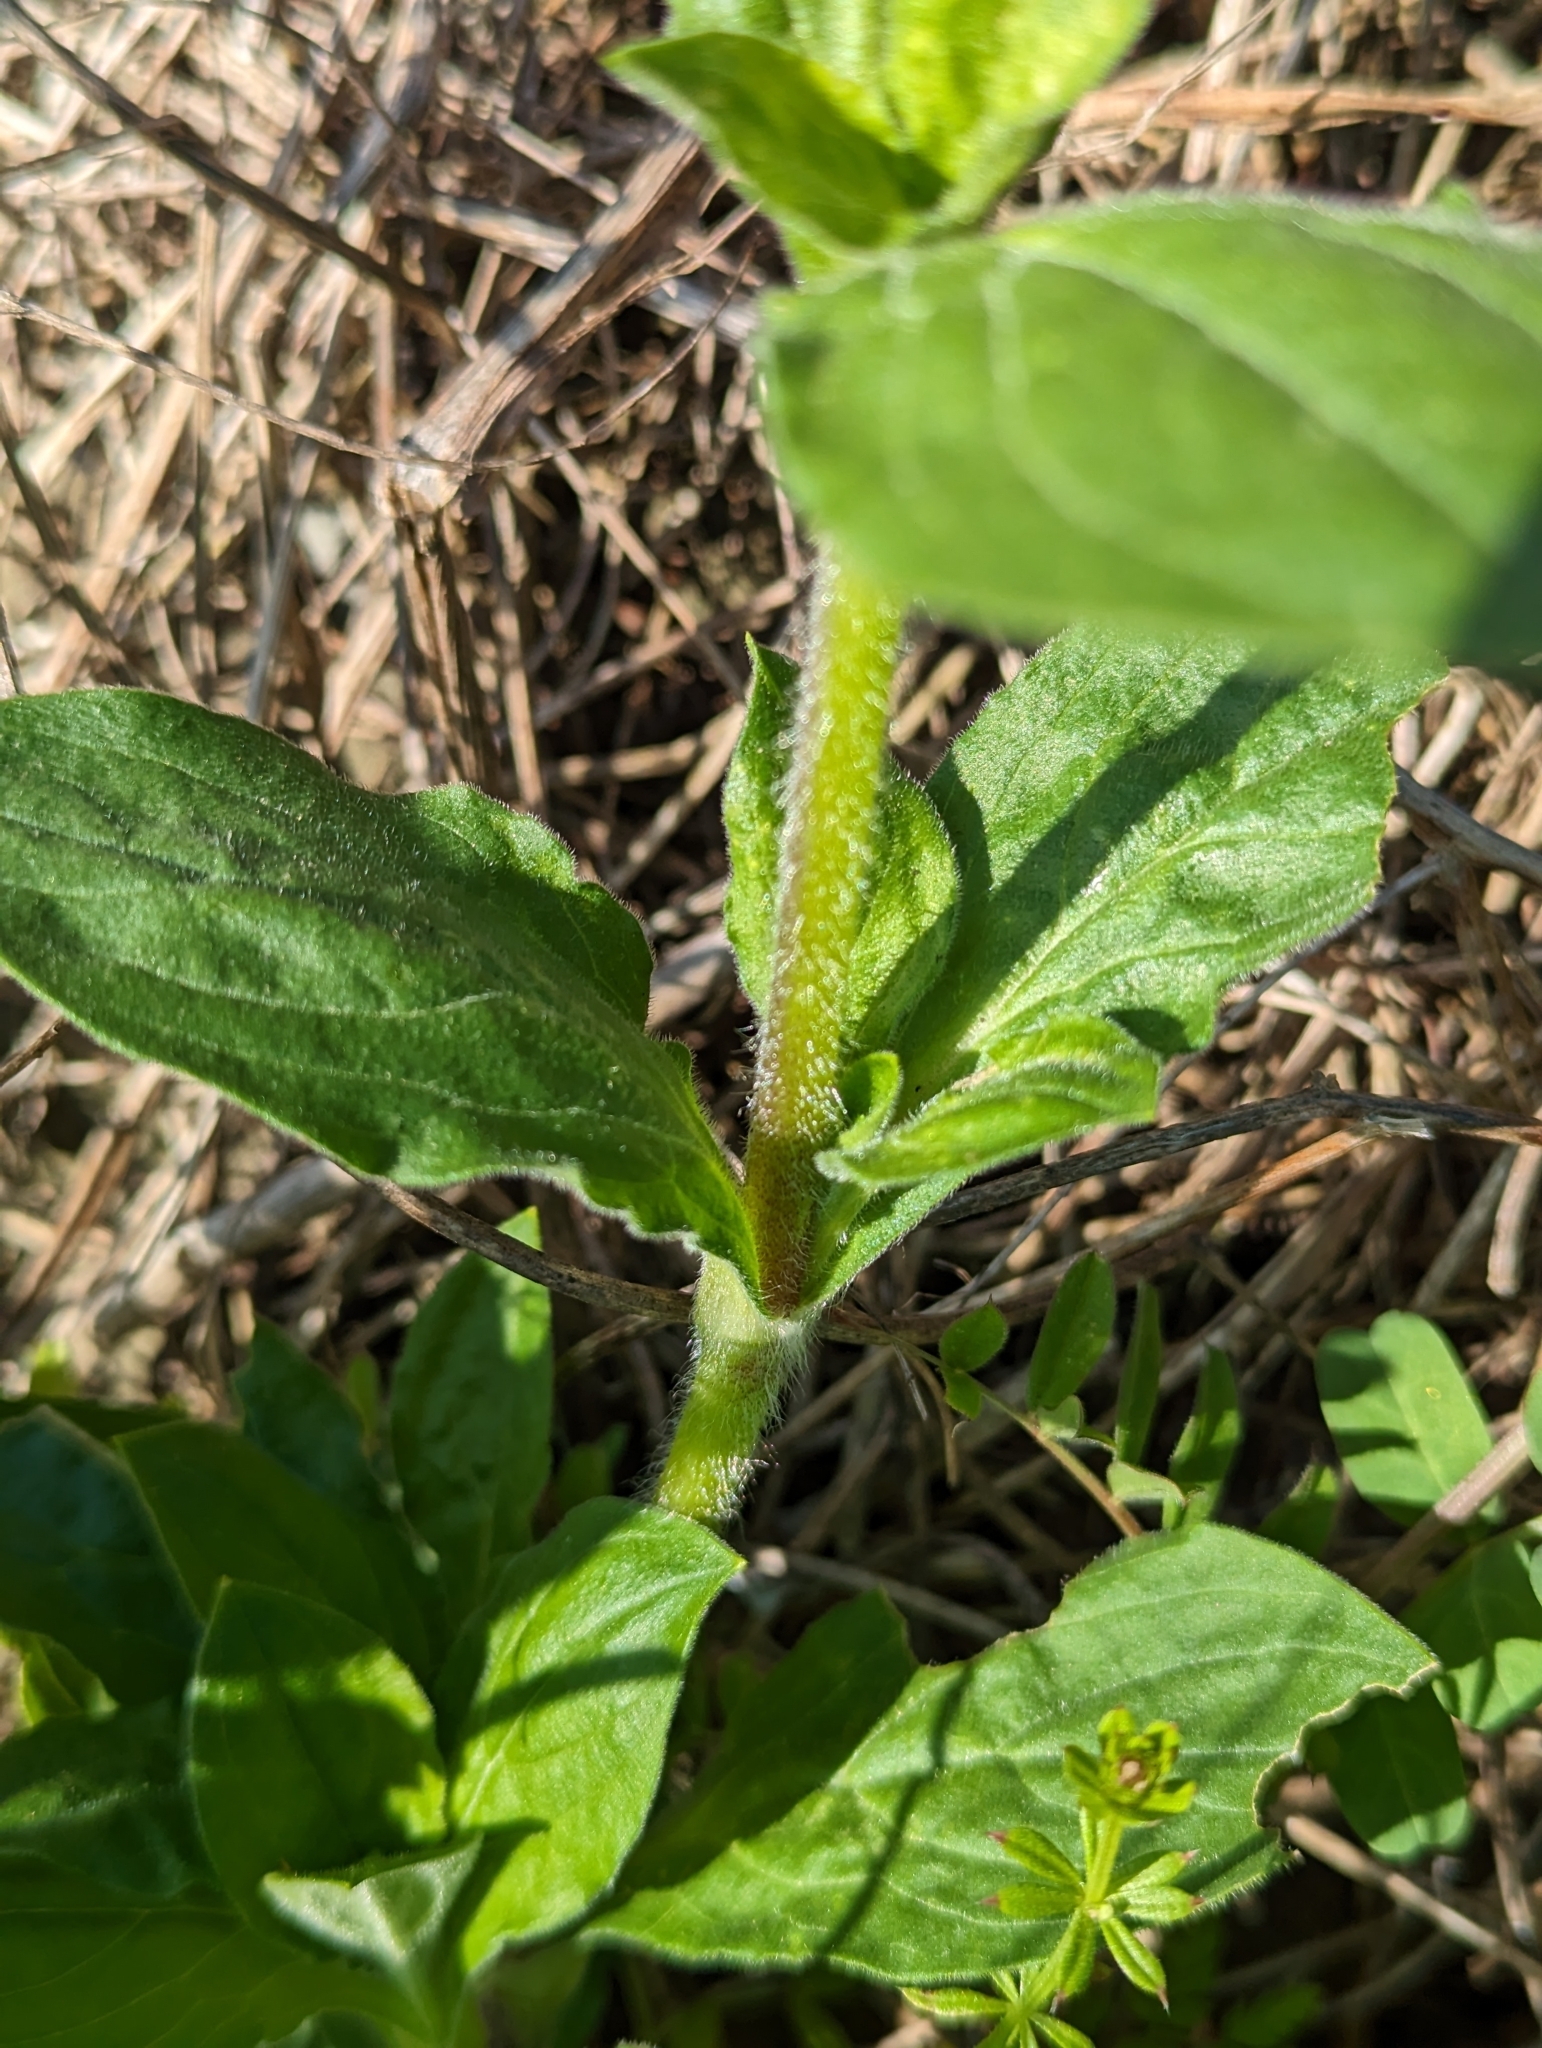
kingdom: Plantae
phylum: Tracheophyta
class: Magnoliopsida
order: Caryophyllales
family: Caryophyllaceae
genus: Silene
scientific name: Silene latifolia
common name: White campion
